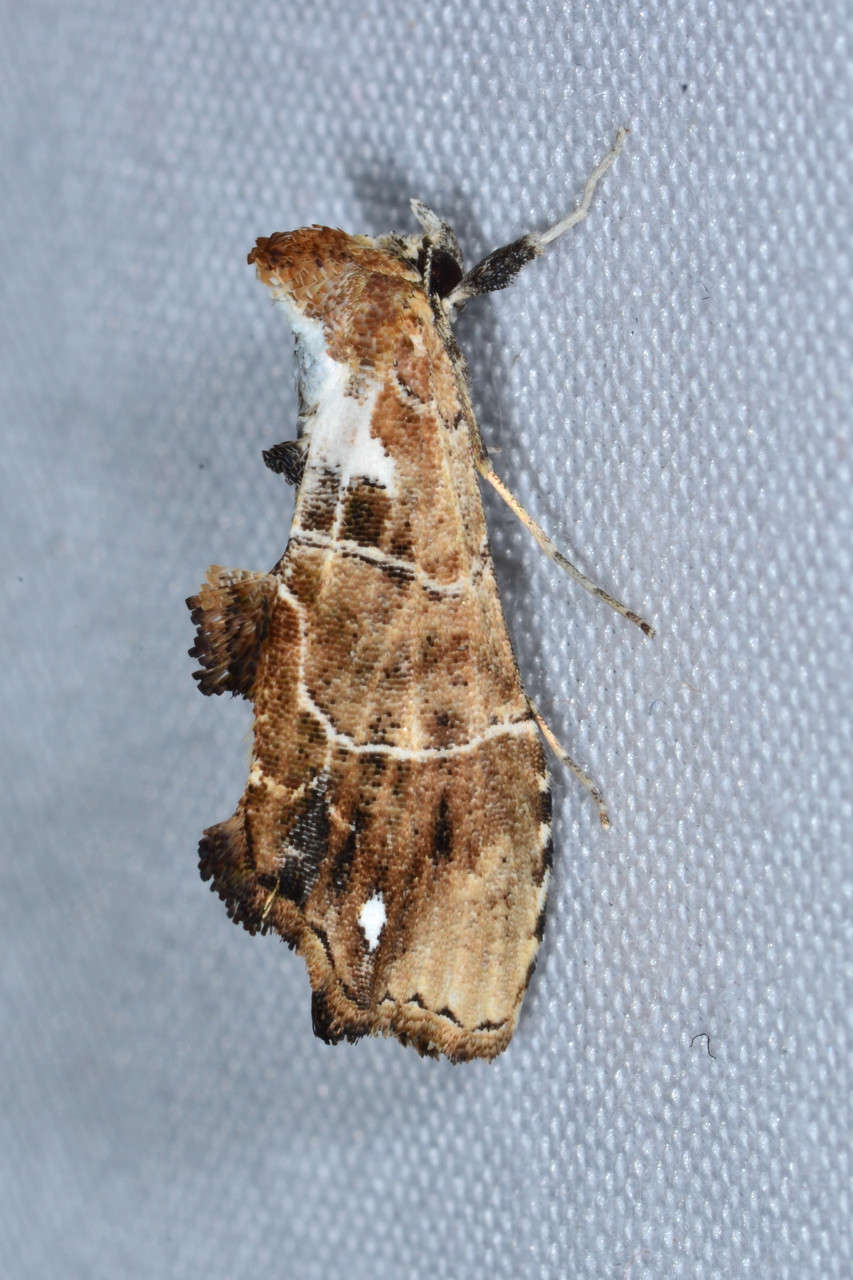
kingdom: Animalia
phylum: Arthropoda
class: Insecta
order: Lepidoptera
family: Erebidae
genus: Arrade
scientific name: Arrade leucocosmalis
